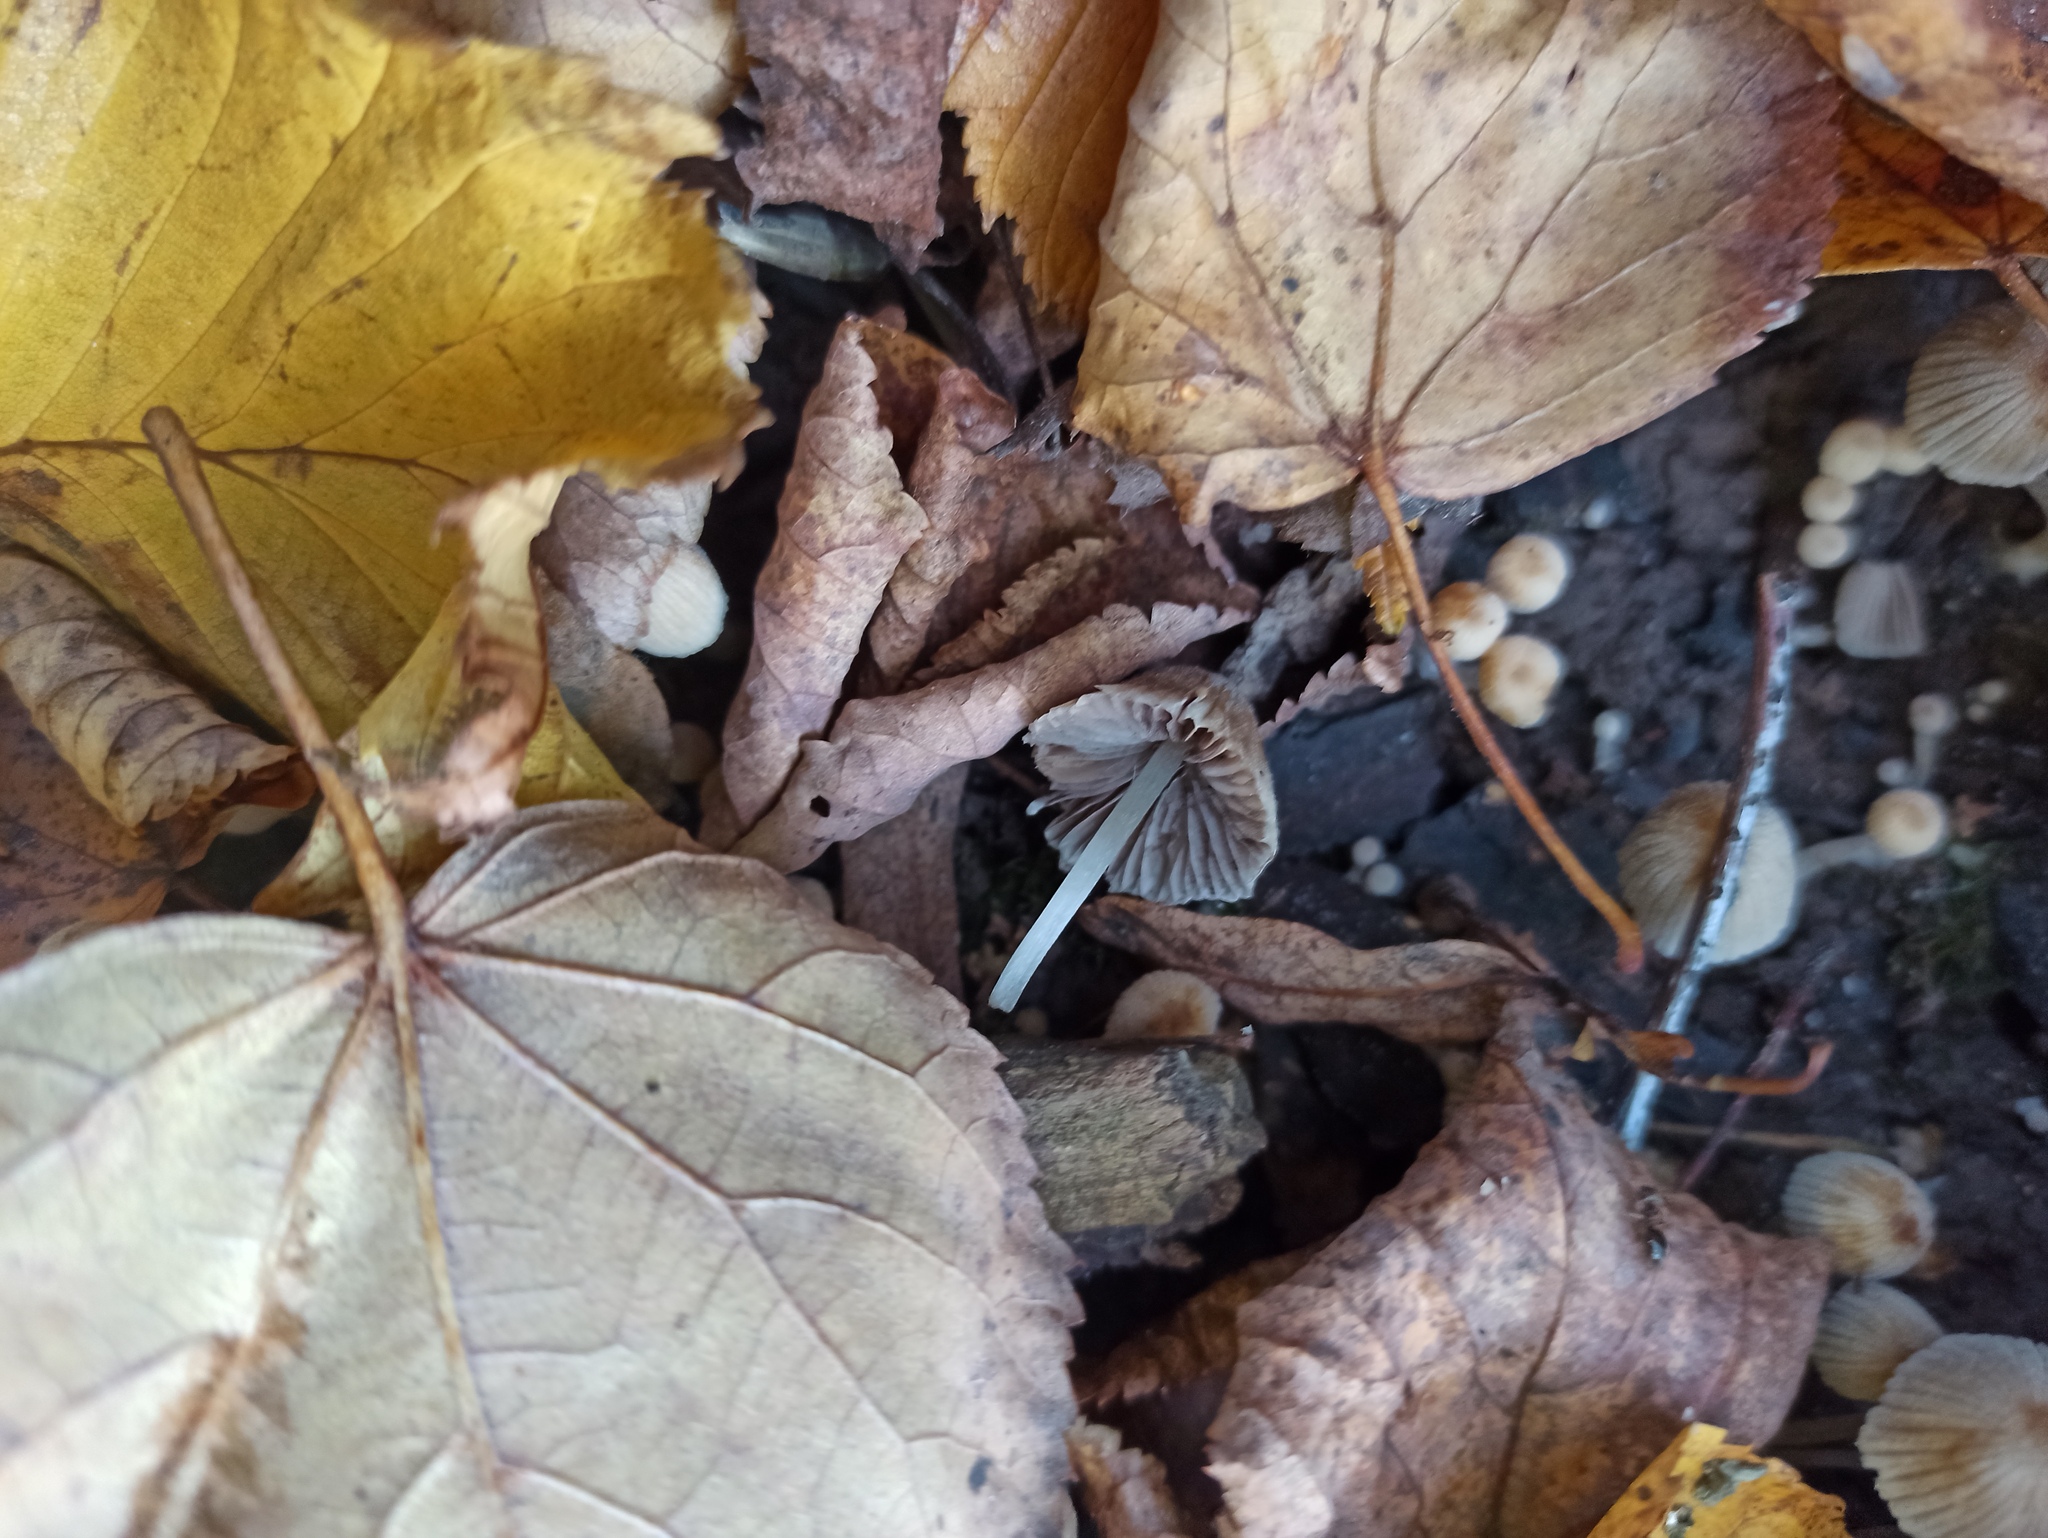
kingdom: Fungi
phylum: Basidiomycota
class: Agaricomycetes
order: Agaricales
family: Psathyrellaceae
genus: Coprinellus
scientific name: Coprinellus disseminatus
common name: Fairies' bonnets
